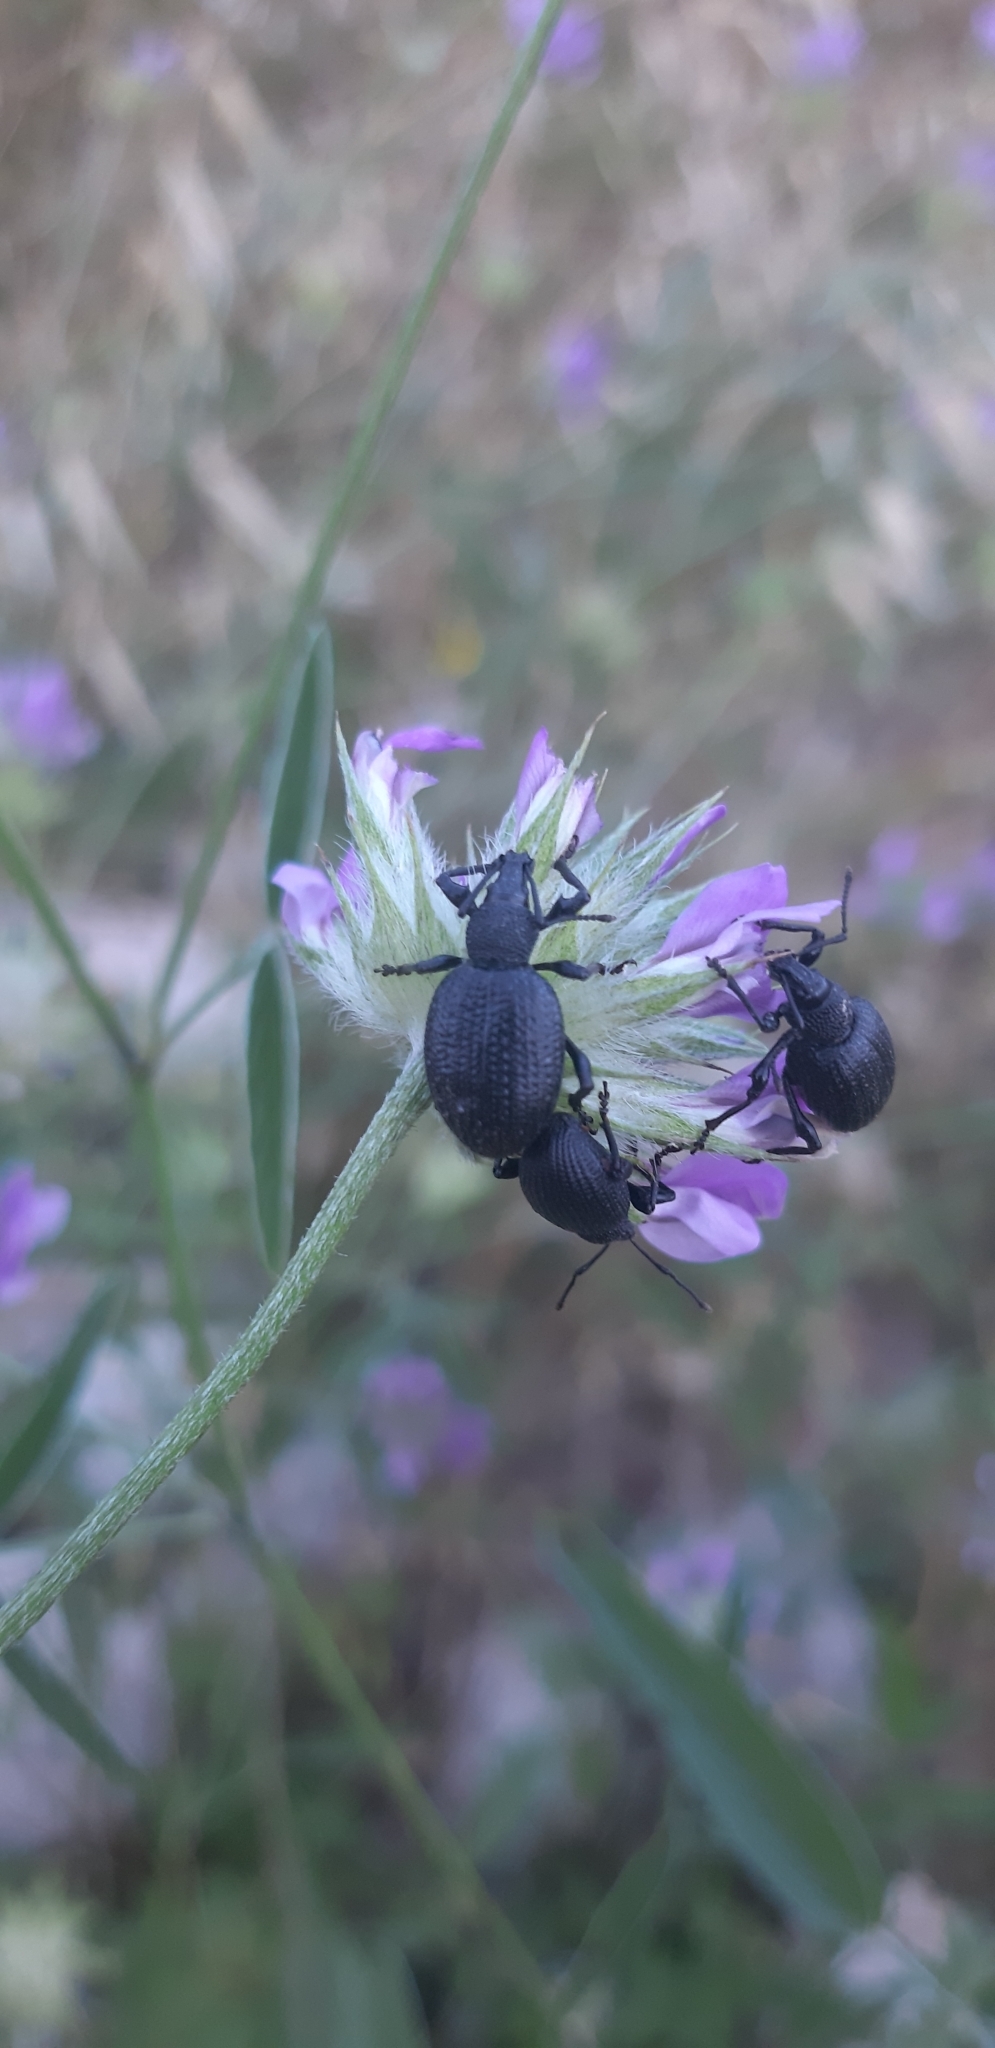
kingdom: Animalia
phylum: Arthropoda
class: Insecta
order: Coleoptera
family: Curculionidae
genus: Otiorhynchus
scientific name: Otiorhynchus lugens
